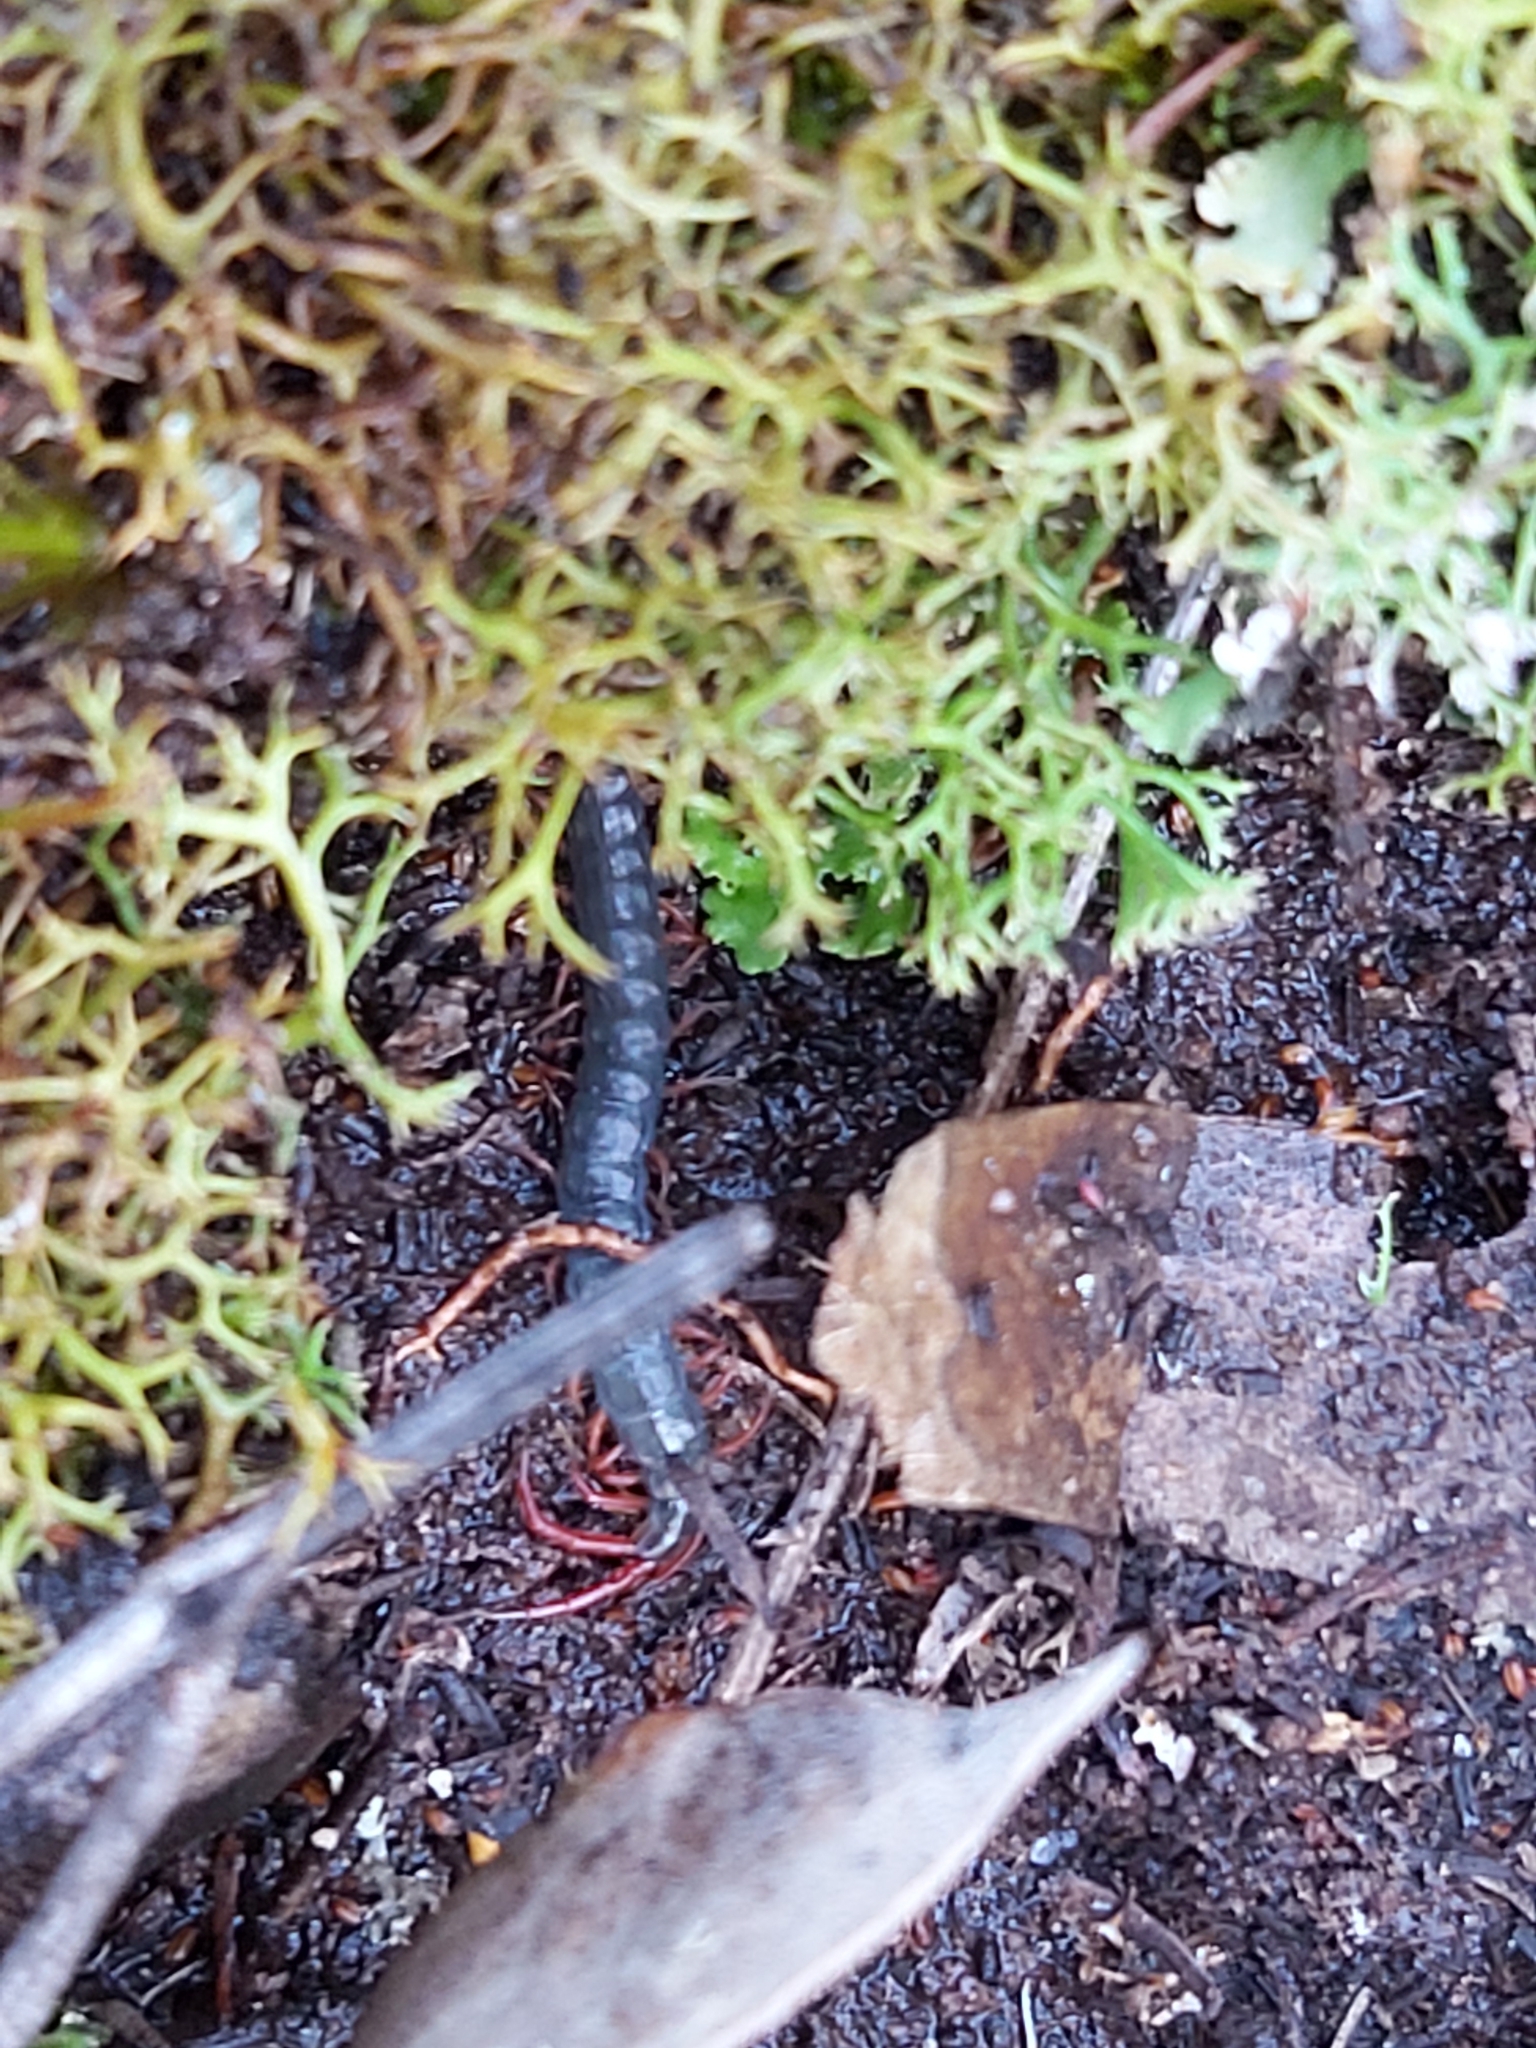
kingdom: Animalia
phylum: Arthropoda
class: Chilopoda
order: Scolopendromorpha
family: Scolopendridae
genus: Cormocephalus
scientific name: Cormocephalus aurantiipes
